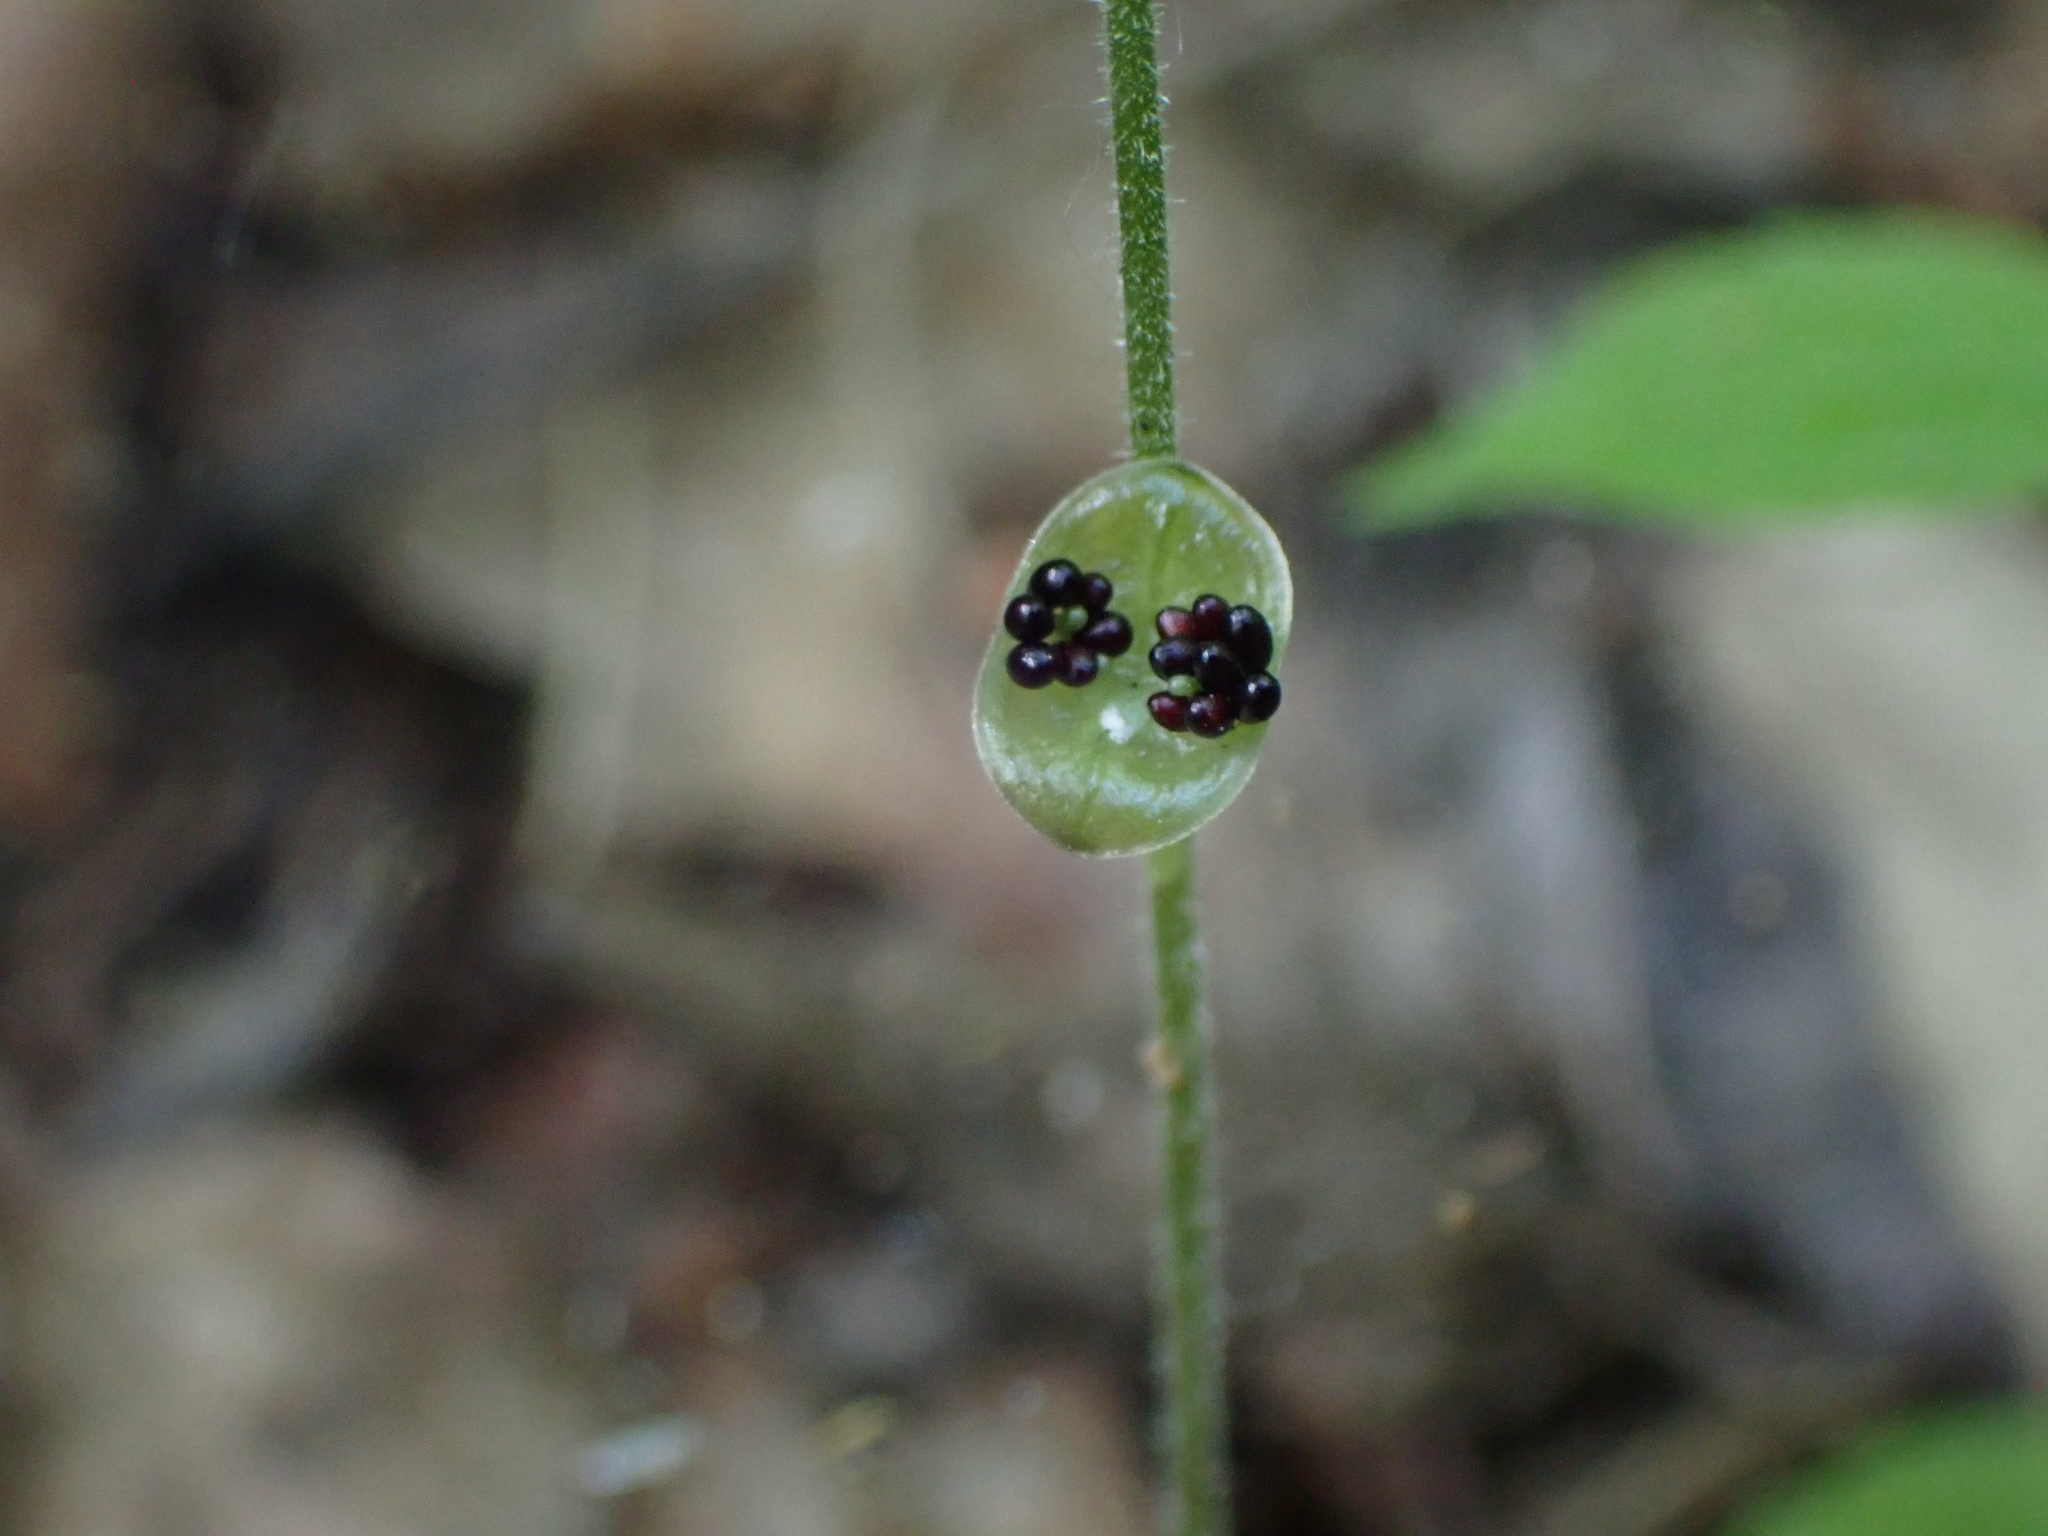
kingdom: Plantae
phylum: Tracheophyta
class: Magnoliopsida
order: Saxifragales
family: Saxifragaceae
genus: Mitella
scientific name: Mitella nuda
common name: Bare-stemmed bishop's-cap
